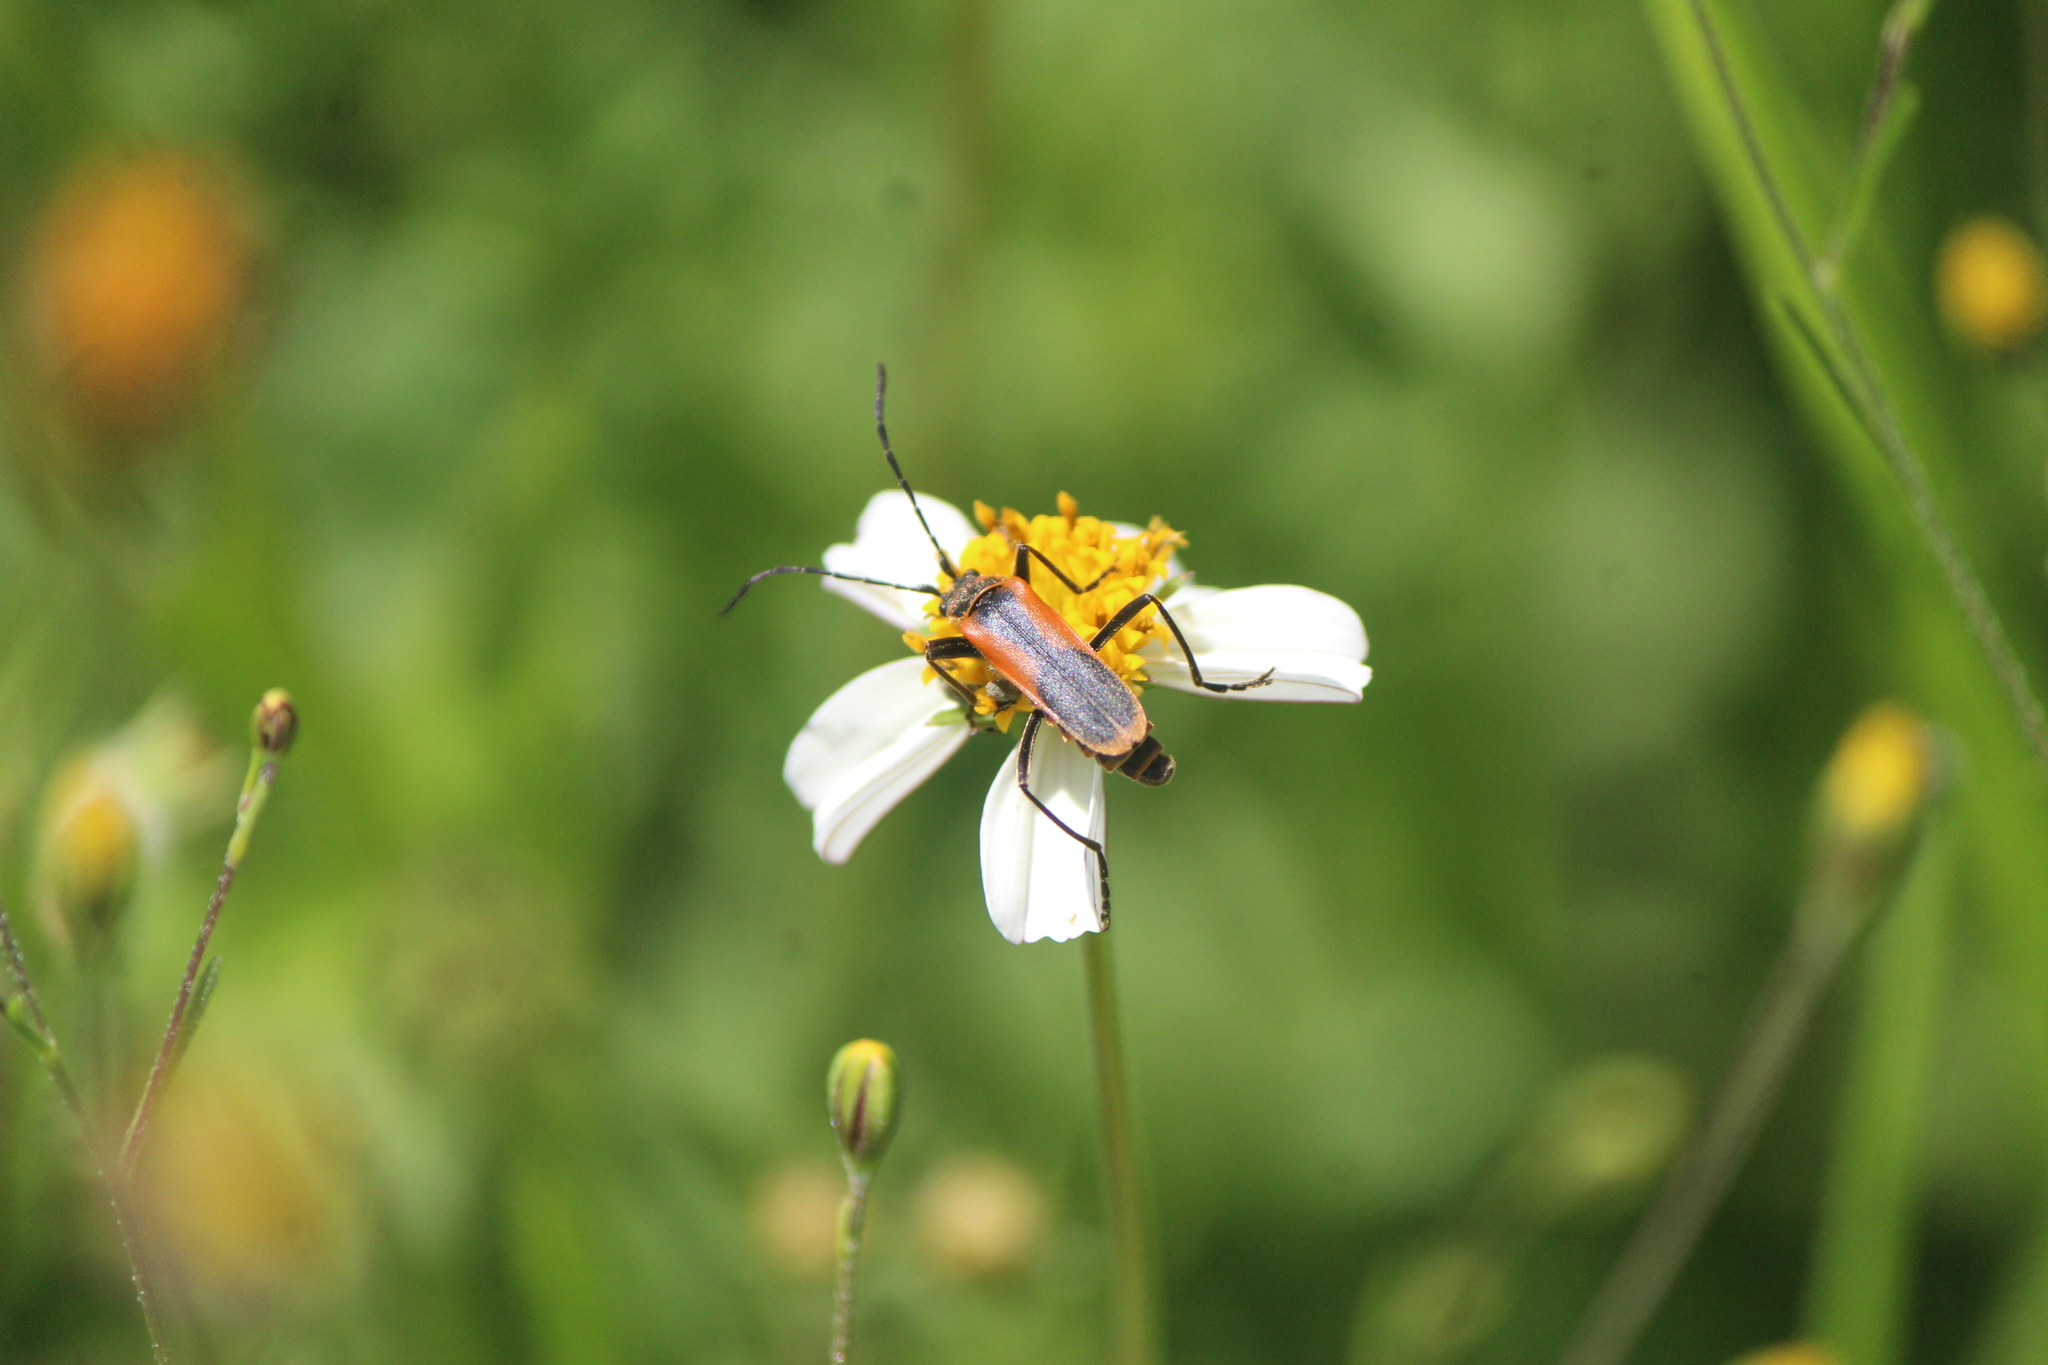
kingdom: Animalia
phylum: Arthropoda
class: Insecta
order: Coleoptera
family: Cantharidae
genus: Chauliognathus
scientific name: Chauliognathus limbicollis
